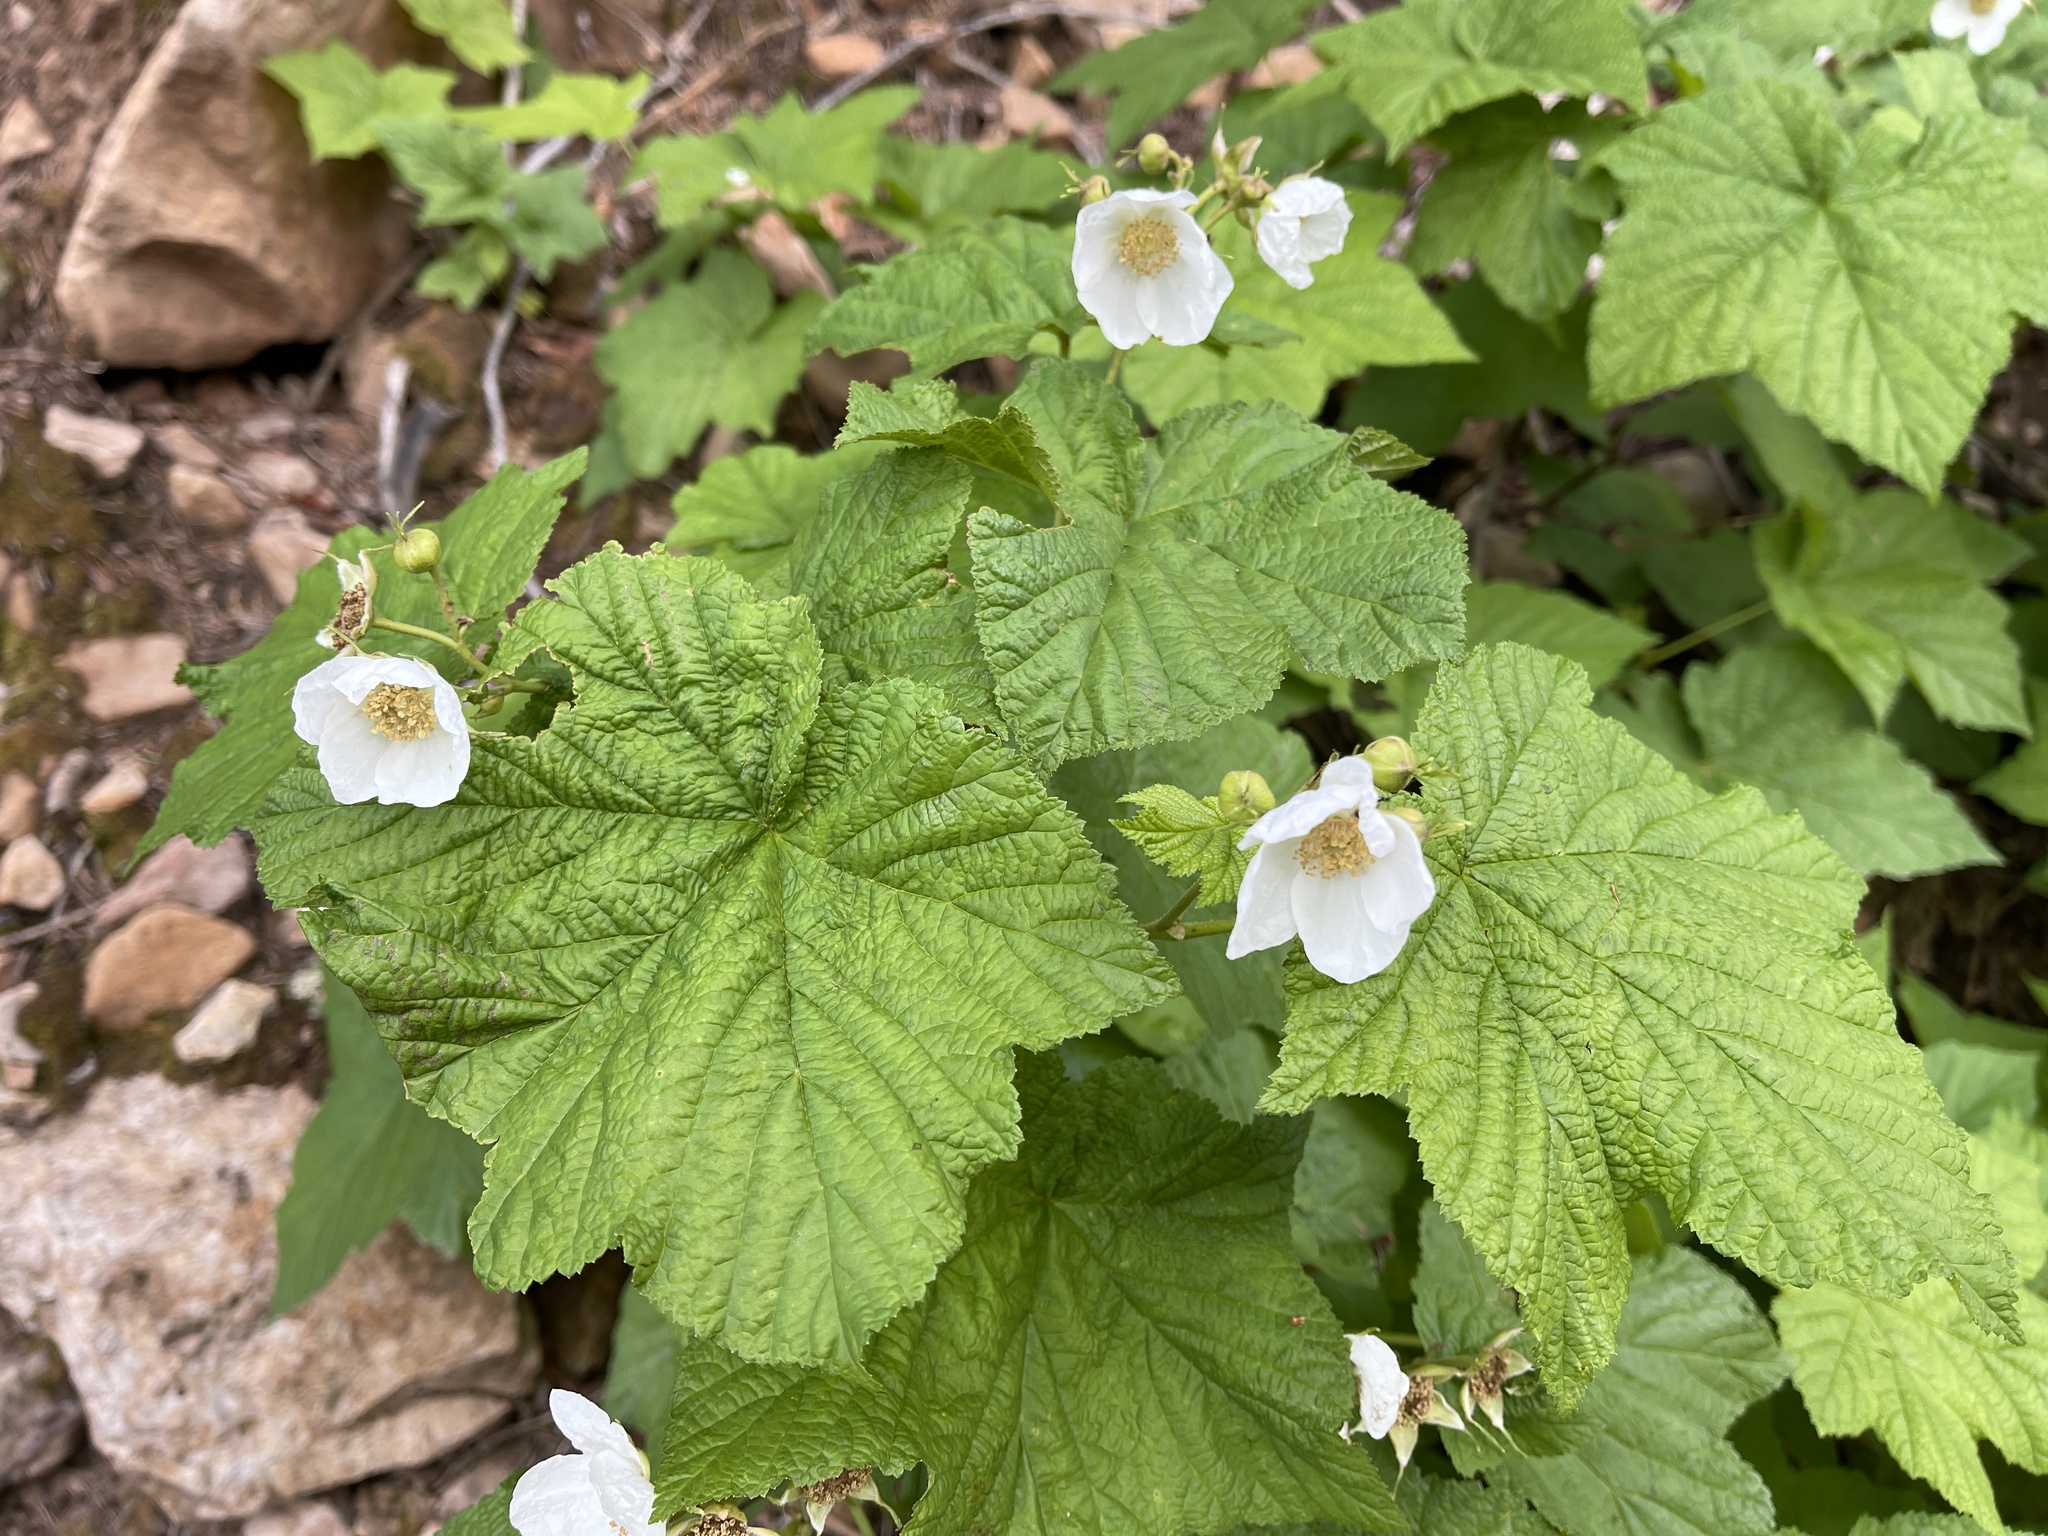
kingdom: Plantae
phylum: Tracheophyta
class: Magnoliopsida
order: Rosales
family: Rosaceae
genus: Rubus
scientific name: Rubus parviflorus
